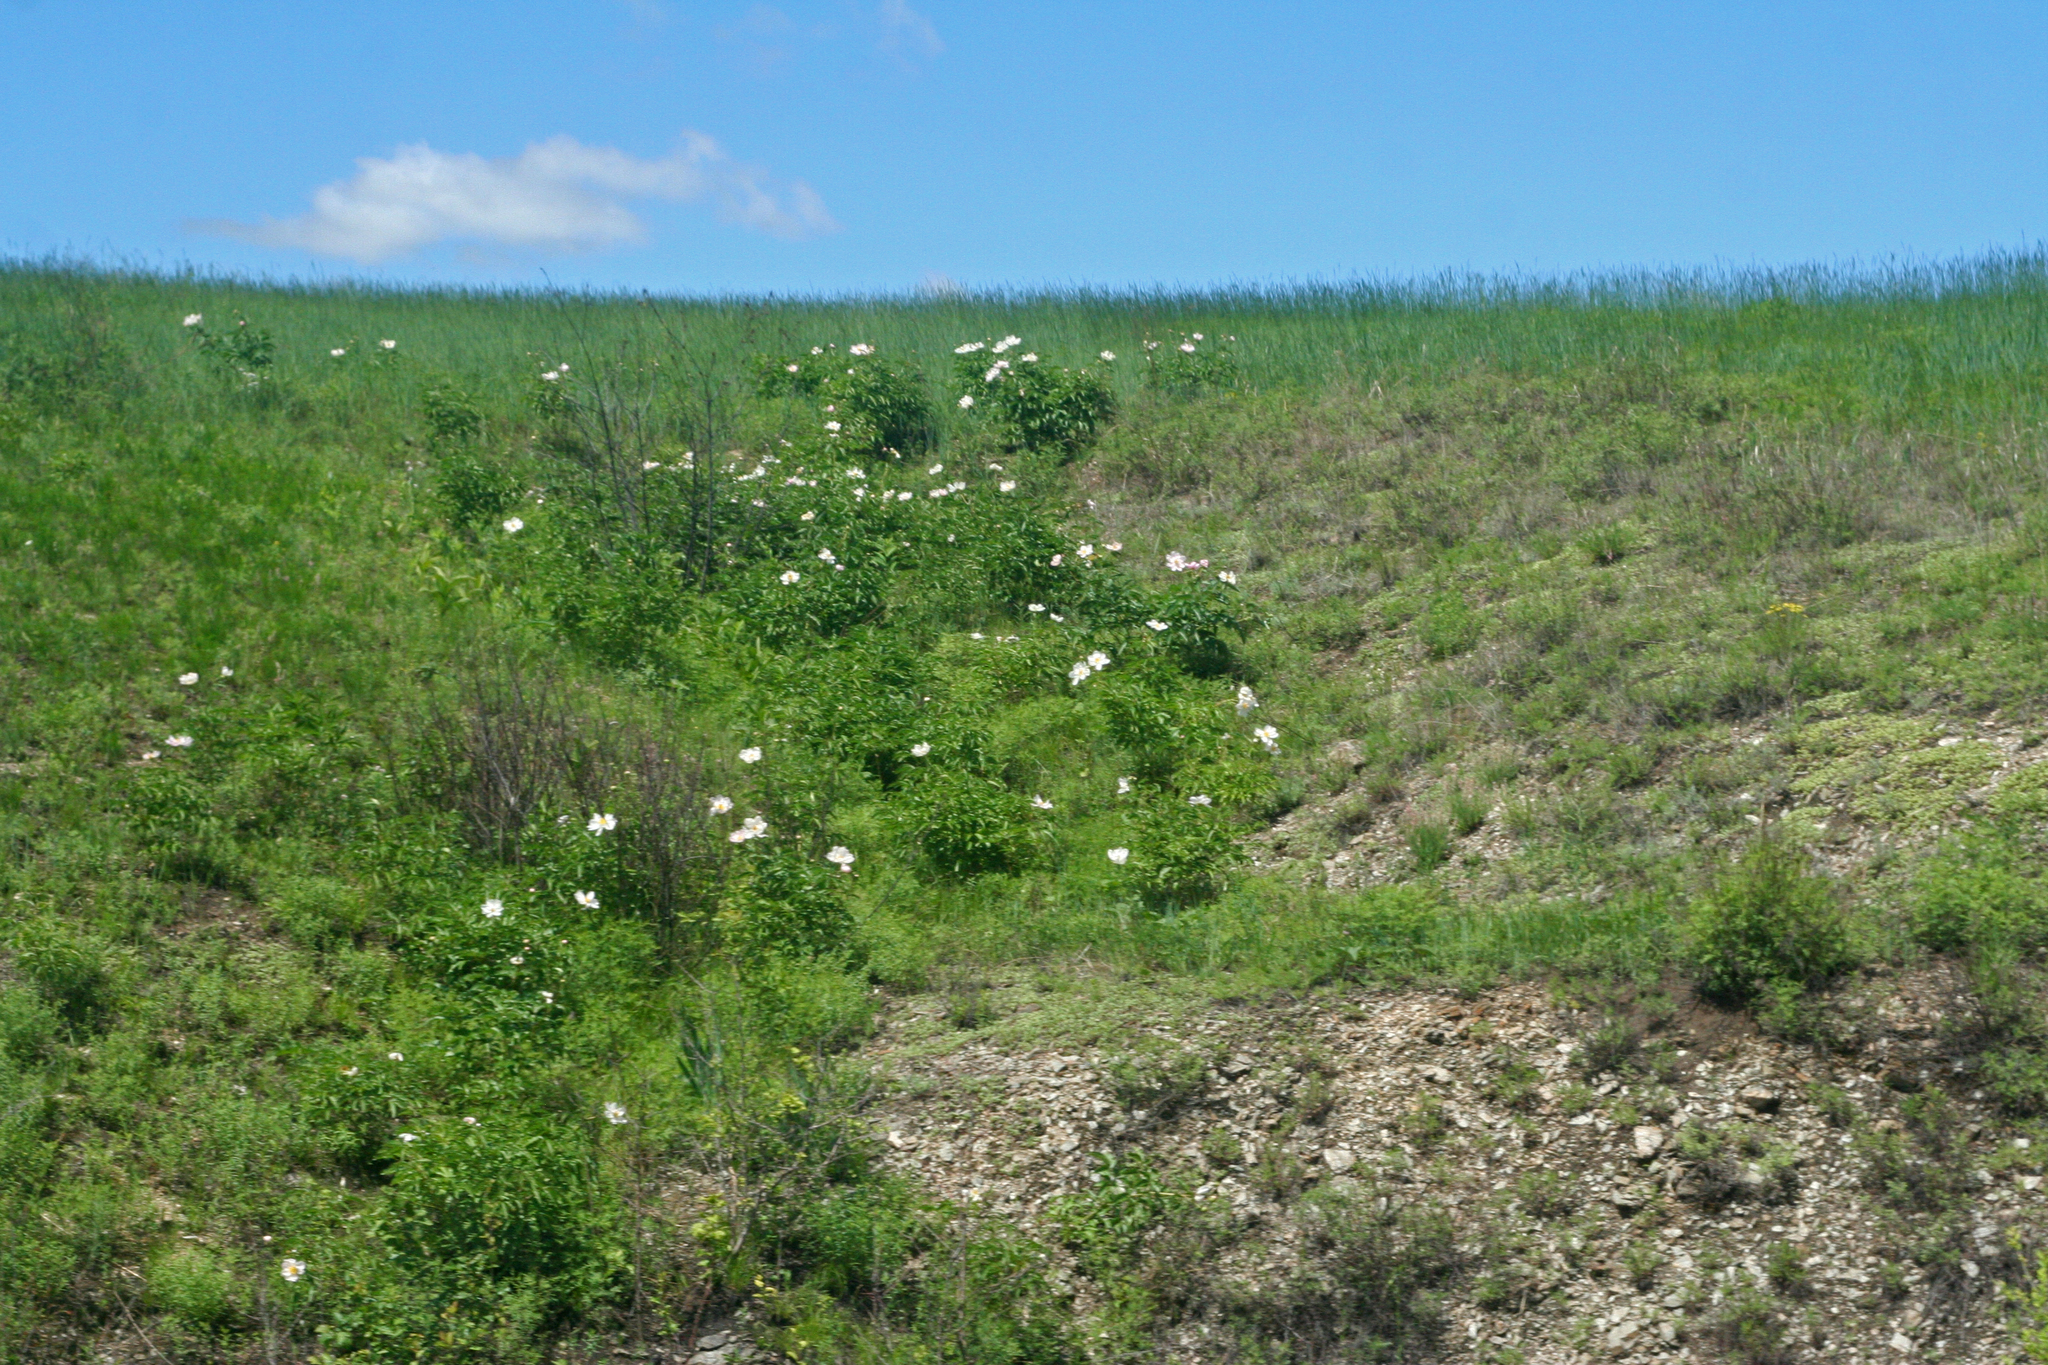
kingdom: Plantae
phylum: Tracheophyta
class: Magnoliopsida
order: Saxifragales
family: Paeoniaceae
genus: Paeonia
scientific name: Paeonia lactiflora
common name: Chinese peony
